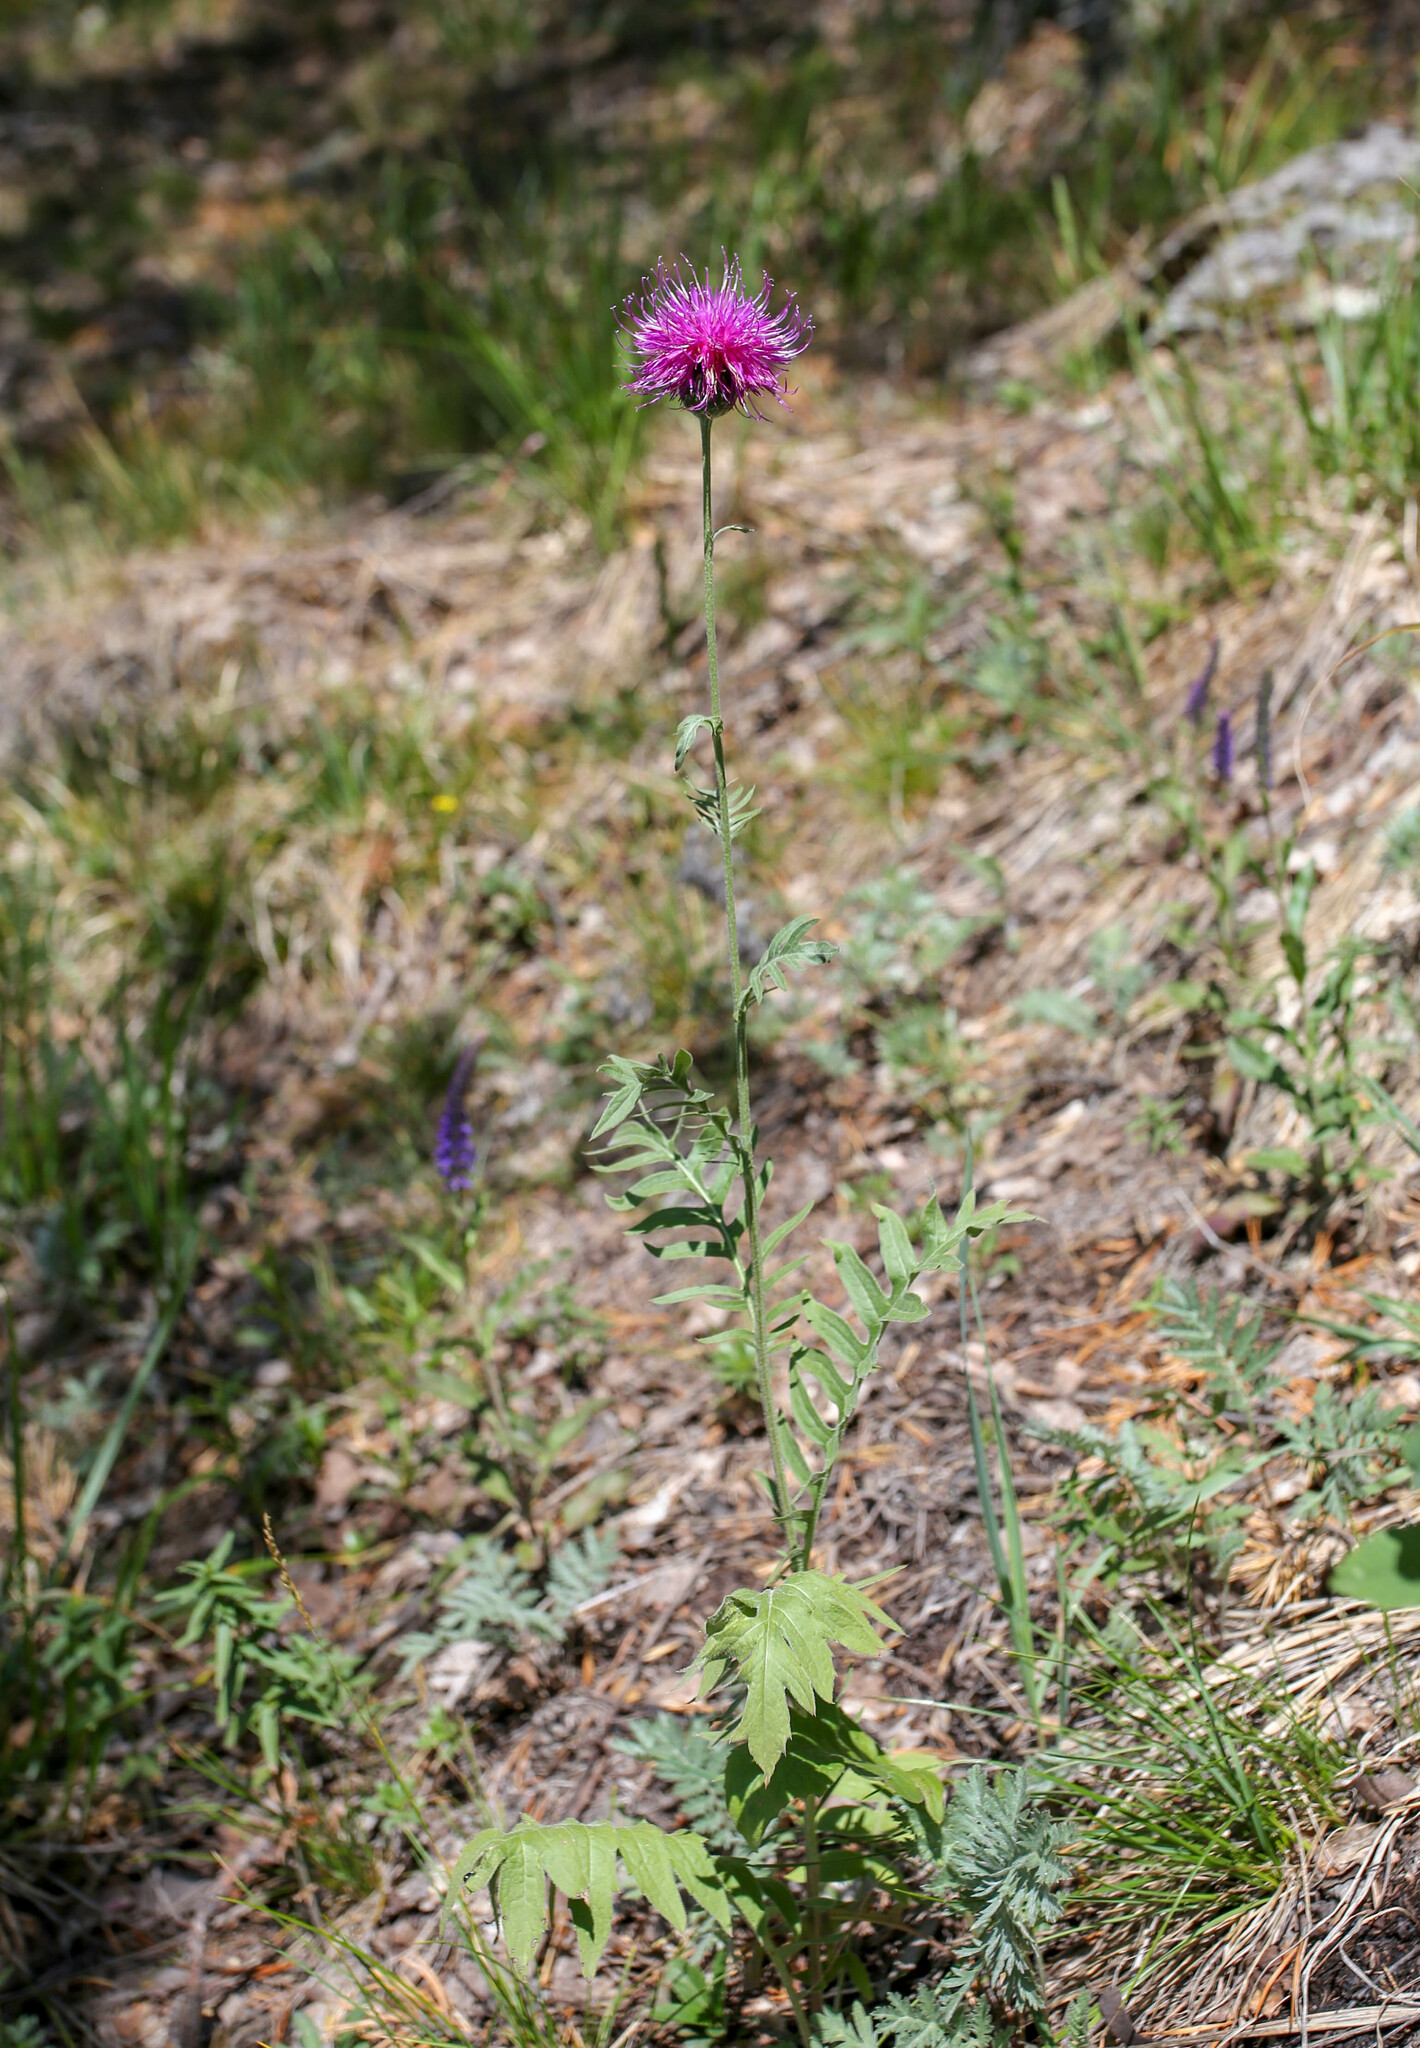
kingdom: Plantae
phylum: Tracheophyta
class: Magnoliopsida
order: Asterales
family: Asteraceae
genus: Serratula
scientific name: Serratula coronata
